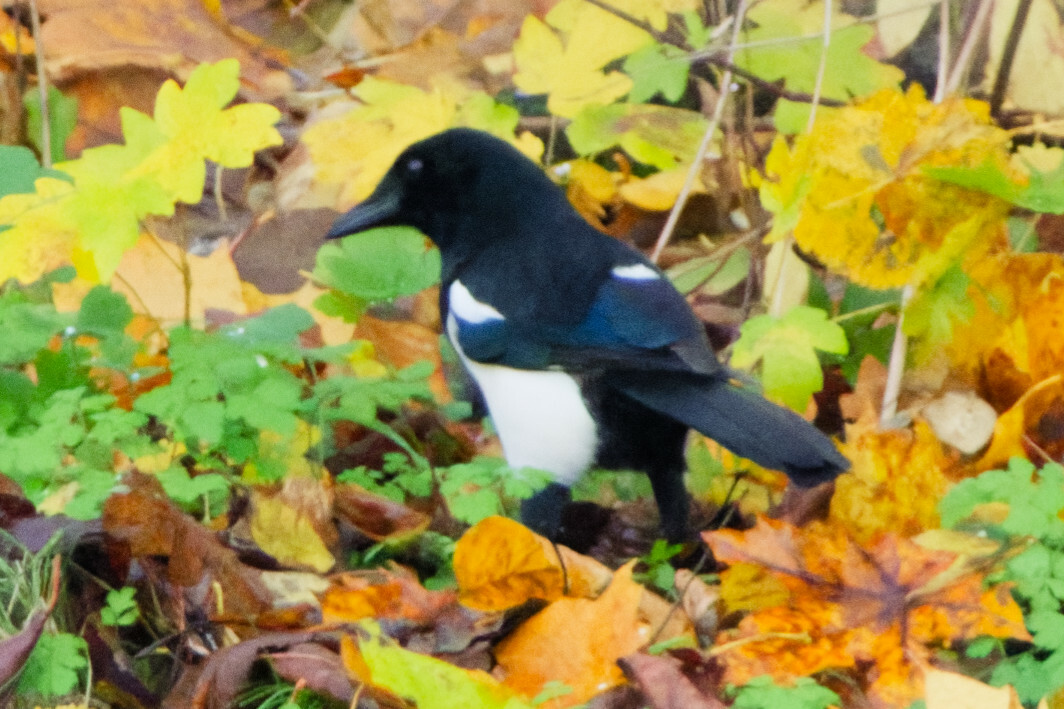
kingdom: Animalia
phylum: Chordata
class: Aves
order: Passeriformes
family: Corvidae
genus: Pica
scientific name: Pica pica
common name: Eurasian magpie
